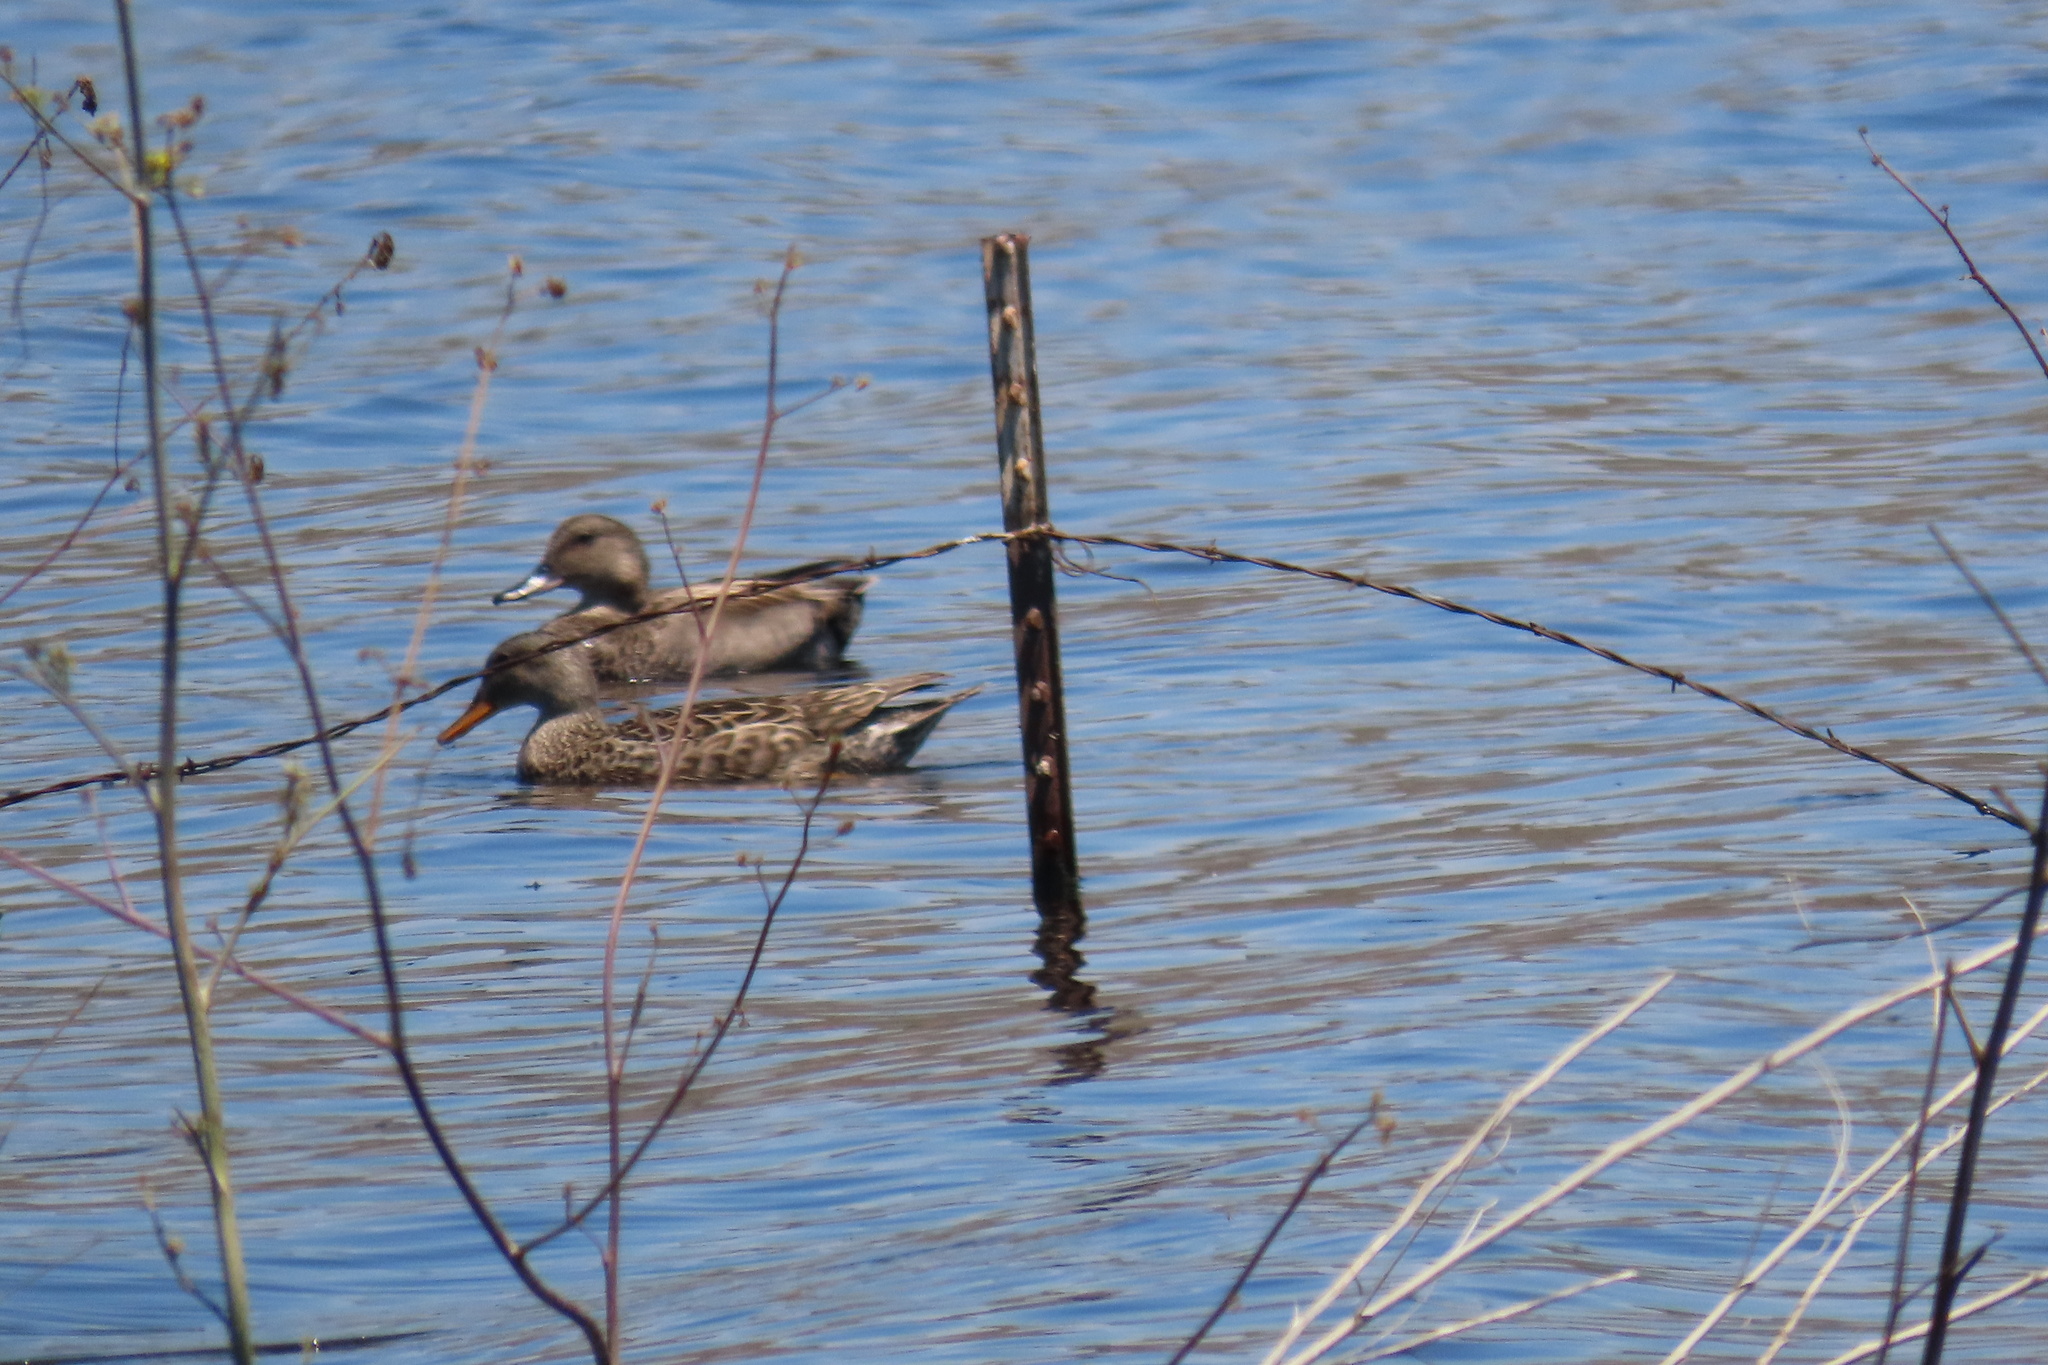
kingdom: Animalia
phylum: Chordata
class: Aves
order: Anseriformes
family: Anatidae
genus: Mareca
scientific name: Mareca strepera
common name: Gadwall
